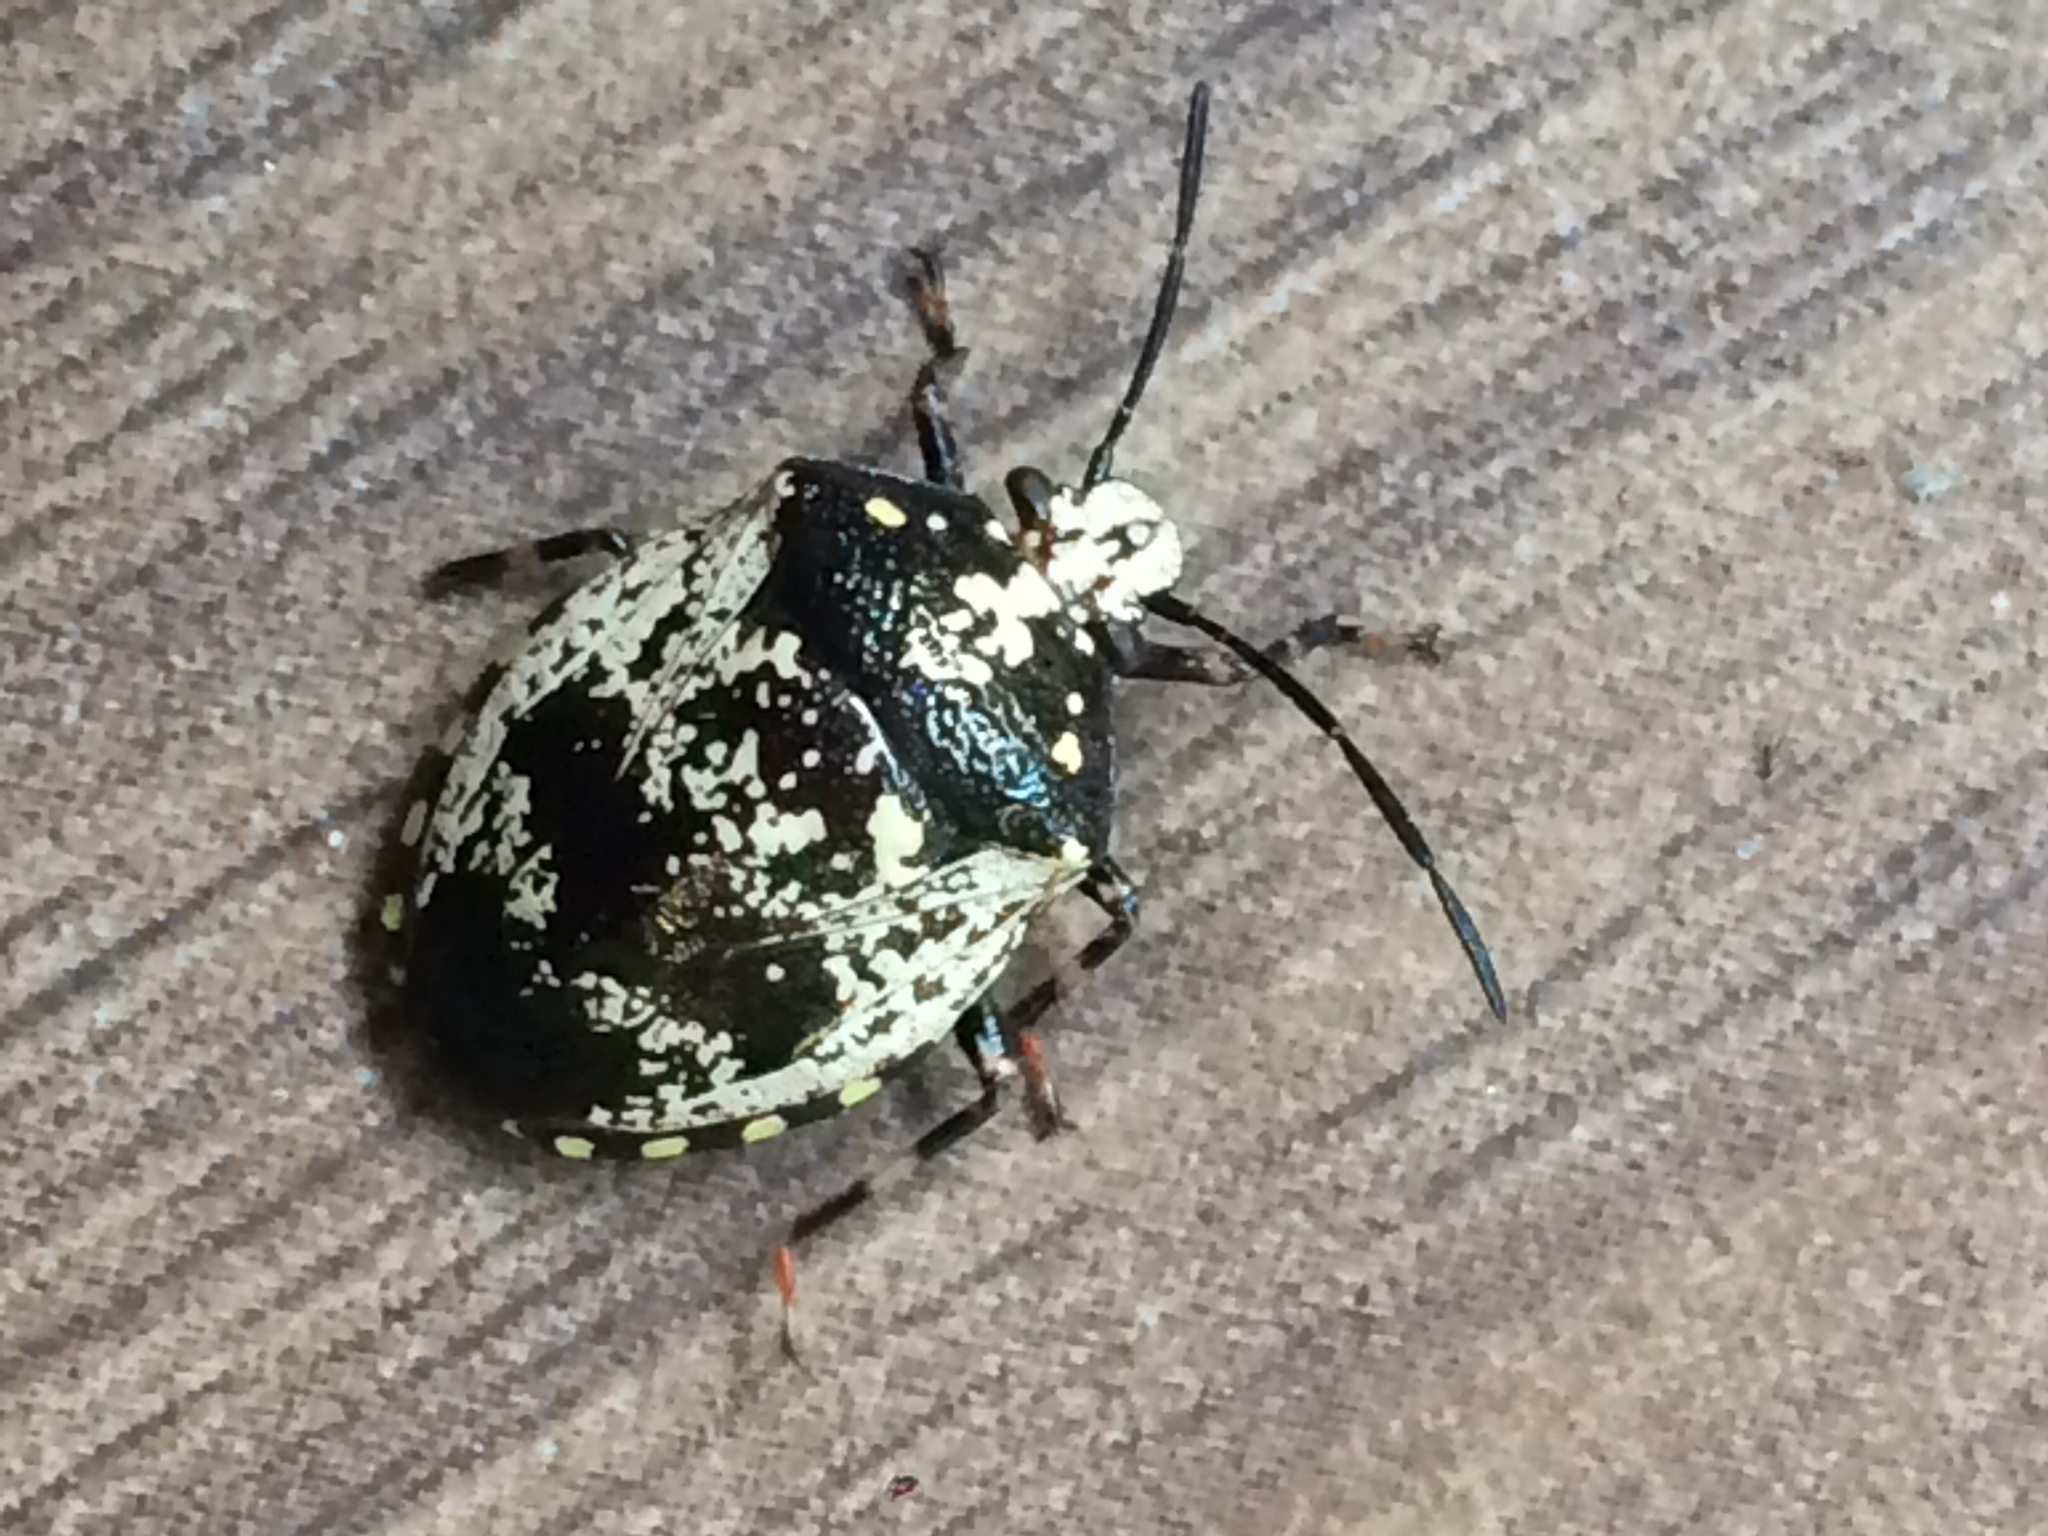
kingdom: Animalia
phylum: Arthropoda
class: Insecta
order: Hemiptera
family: Pentatomidae
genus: Platynopus
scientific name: Platynopus melanoleucus
